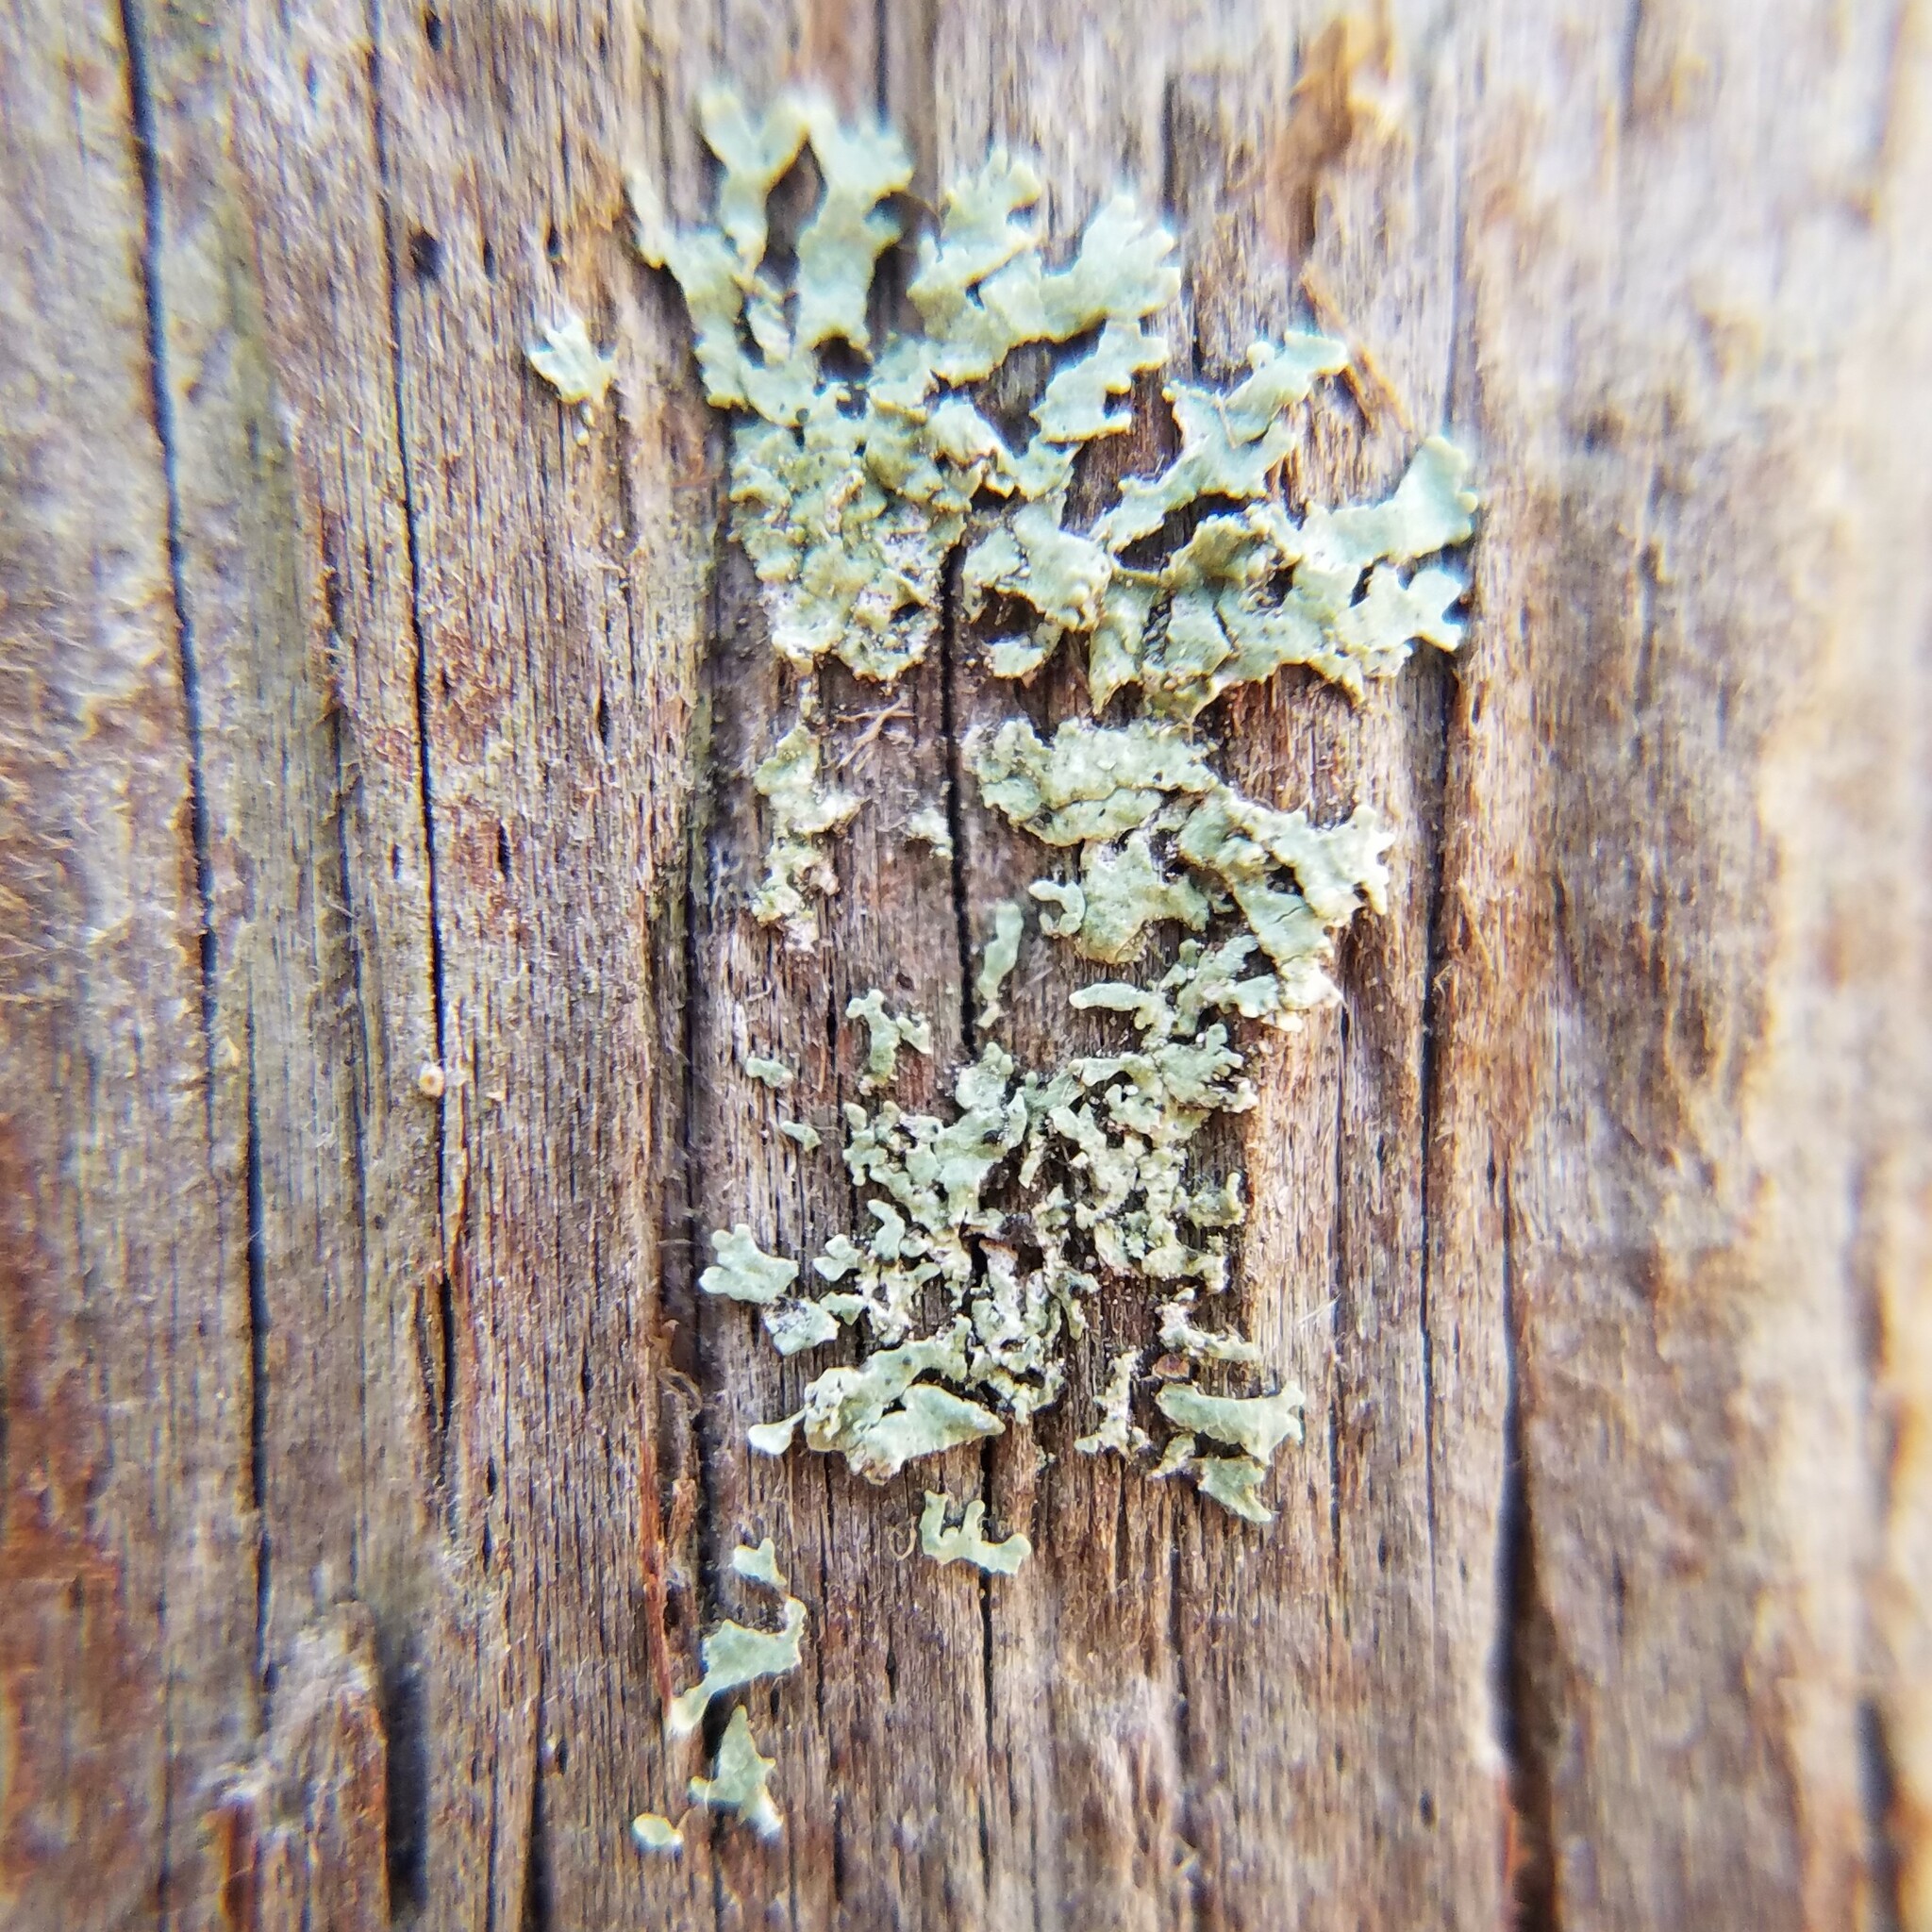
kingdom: Fungi
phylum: Ascomycota
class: Lecanoromycetes
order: Lecanorales
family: Parmeliaceae
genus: Parmeliopsis
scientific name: Parmeliopsis subambigua
